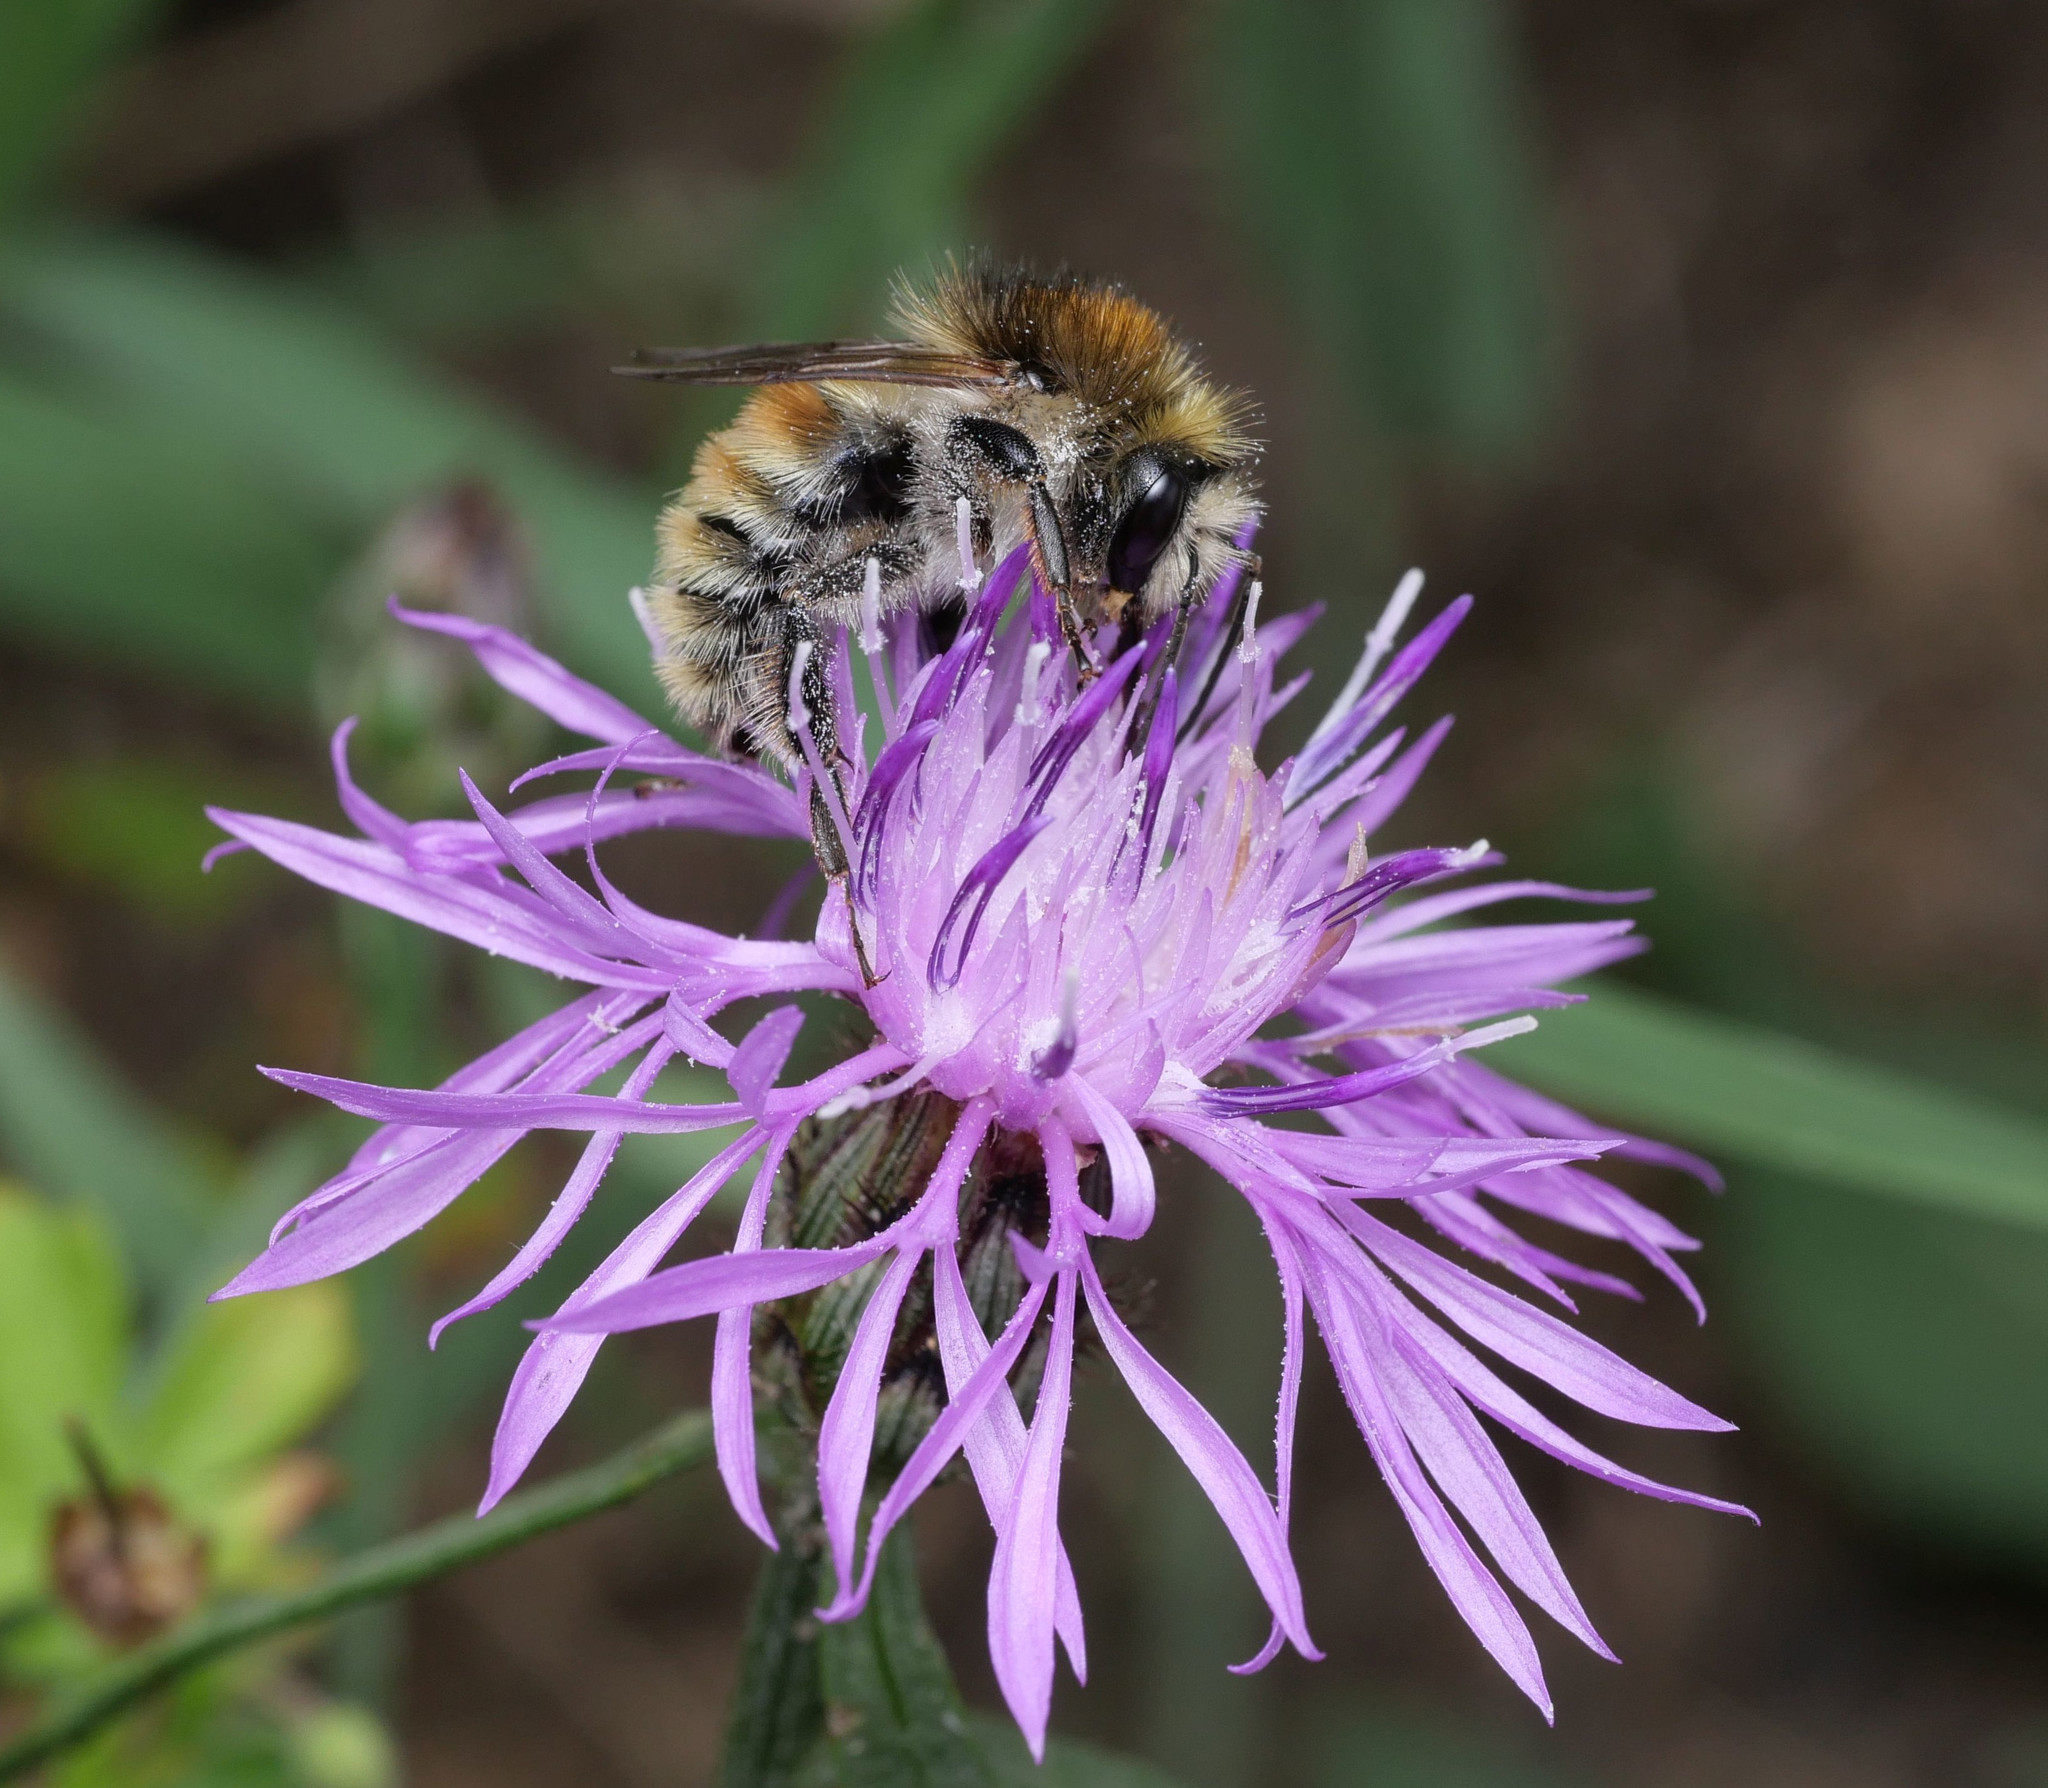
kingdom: Animalia
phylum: Arthropoda
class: Insecta
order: Hymenoptera
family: Apidae
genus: Bombus
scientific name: Bombus humilis
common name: Brown-banded carder-bee
